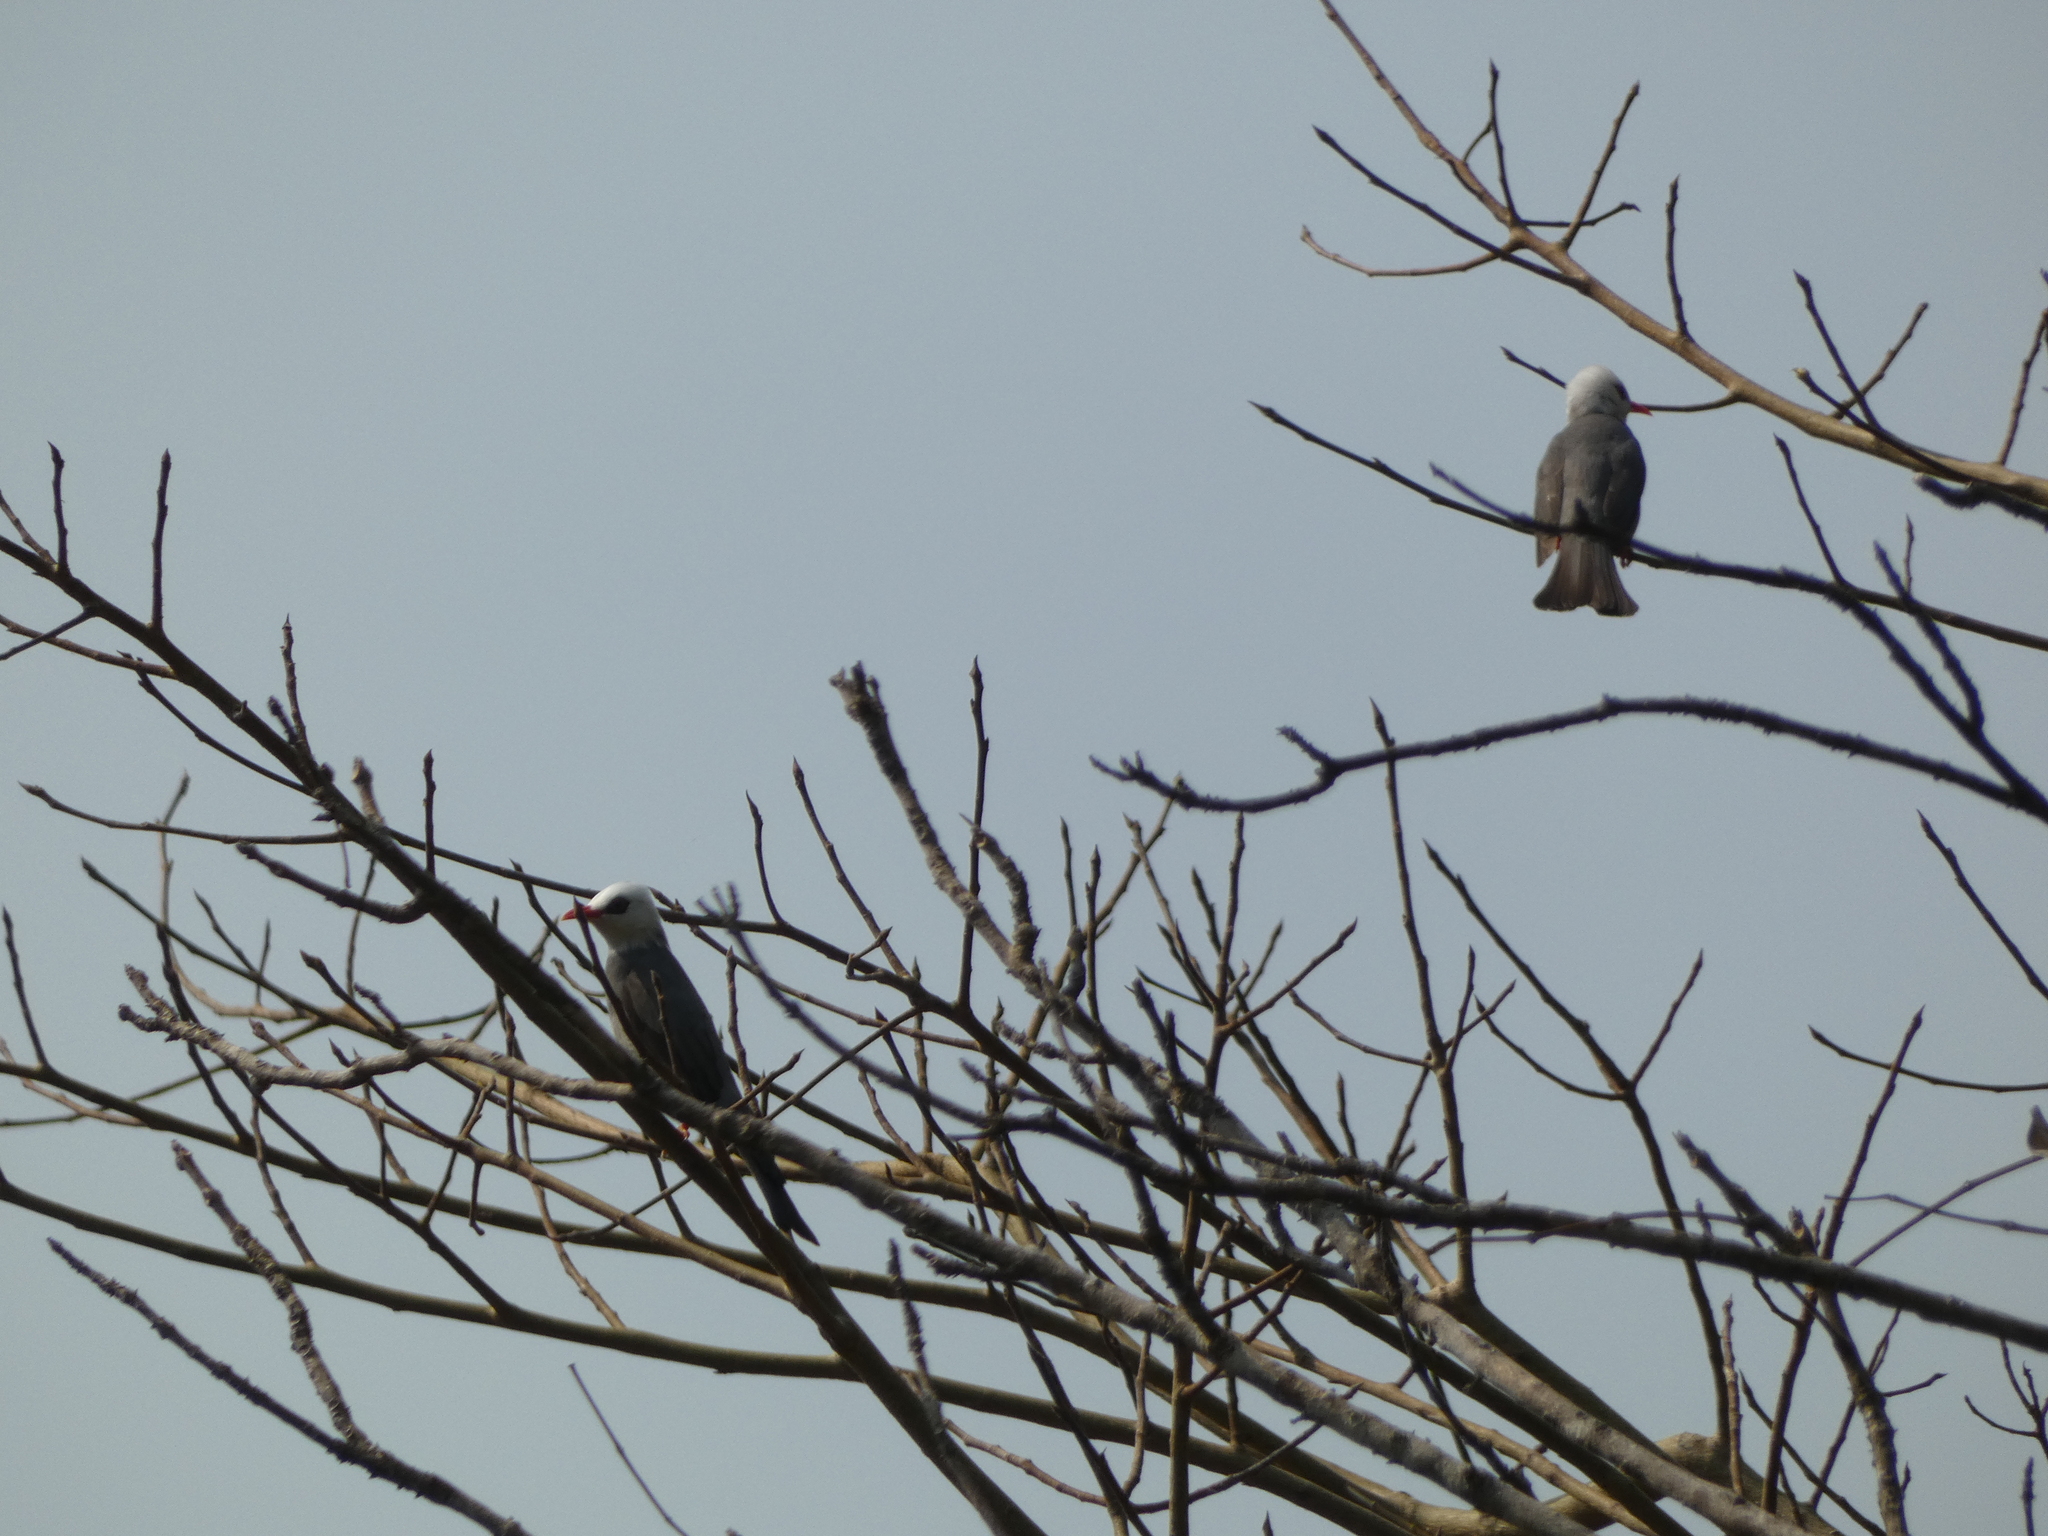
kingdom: Animalia
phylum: Chordata
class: Aves
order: Passeriformes
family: Pycnonotidae
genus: Cerasophila
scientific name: Cerasophila thompsoni
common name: White-headed bulbul
